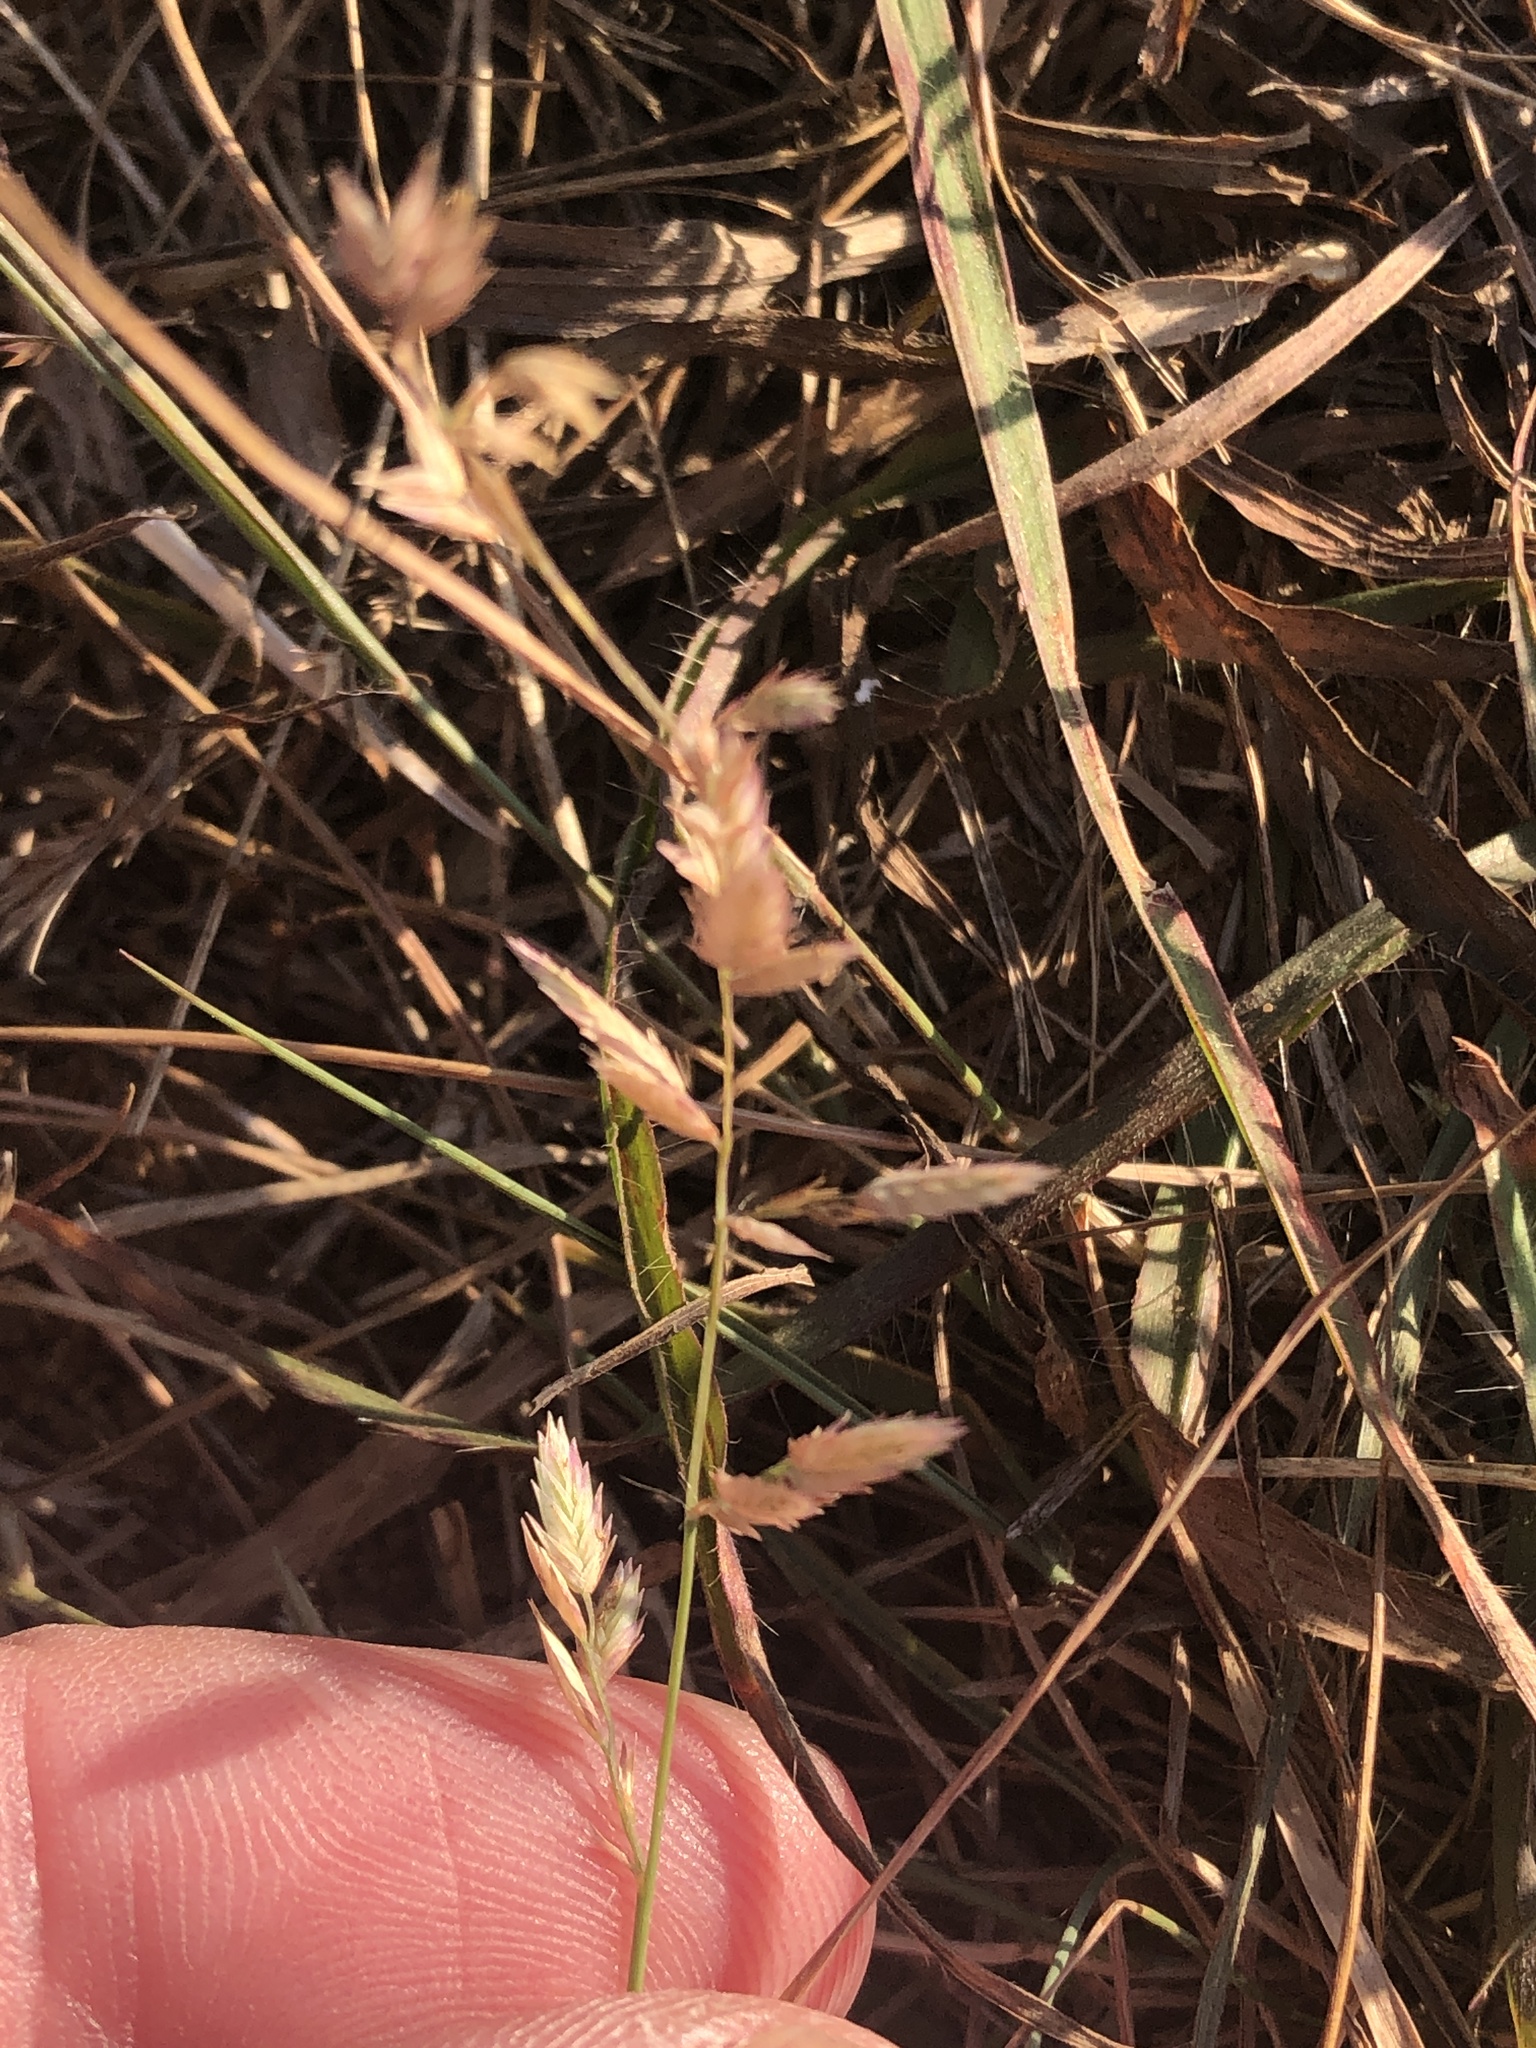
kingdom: Plantae
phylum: Tracheophyta
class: Liliopsida
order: Poales
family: Poaceae
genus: Eragrostis
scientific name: Eragrostis secundiflora
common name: Red love grass
